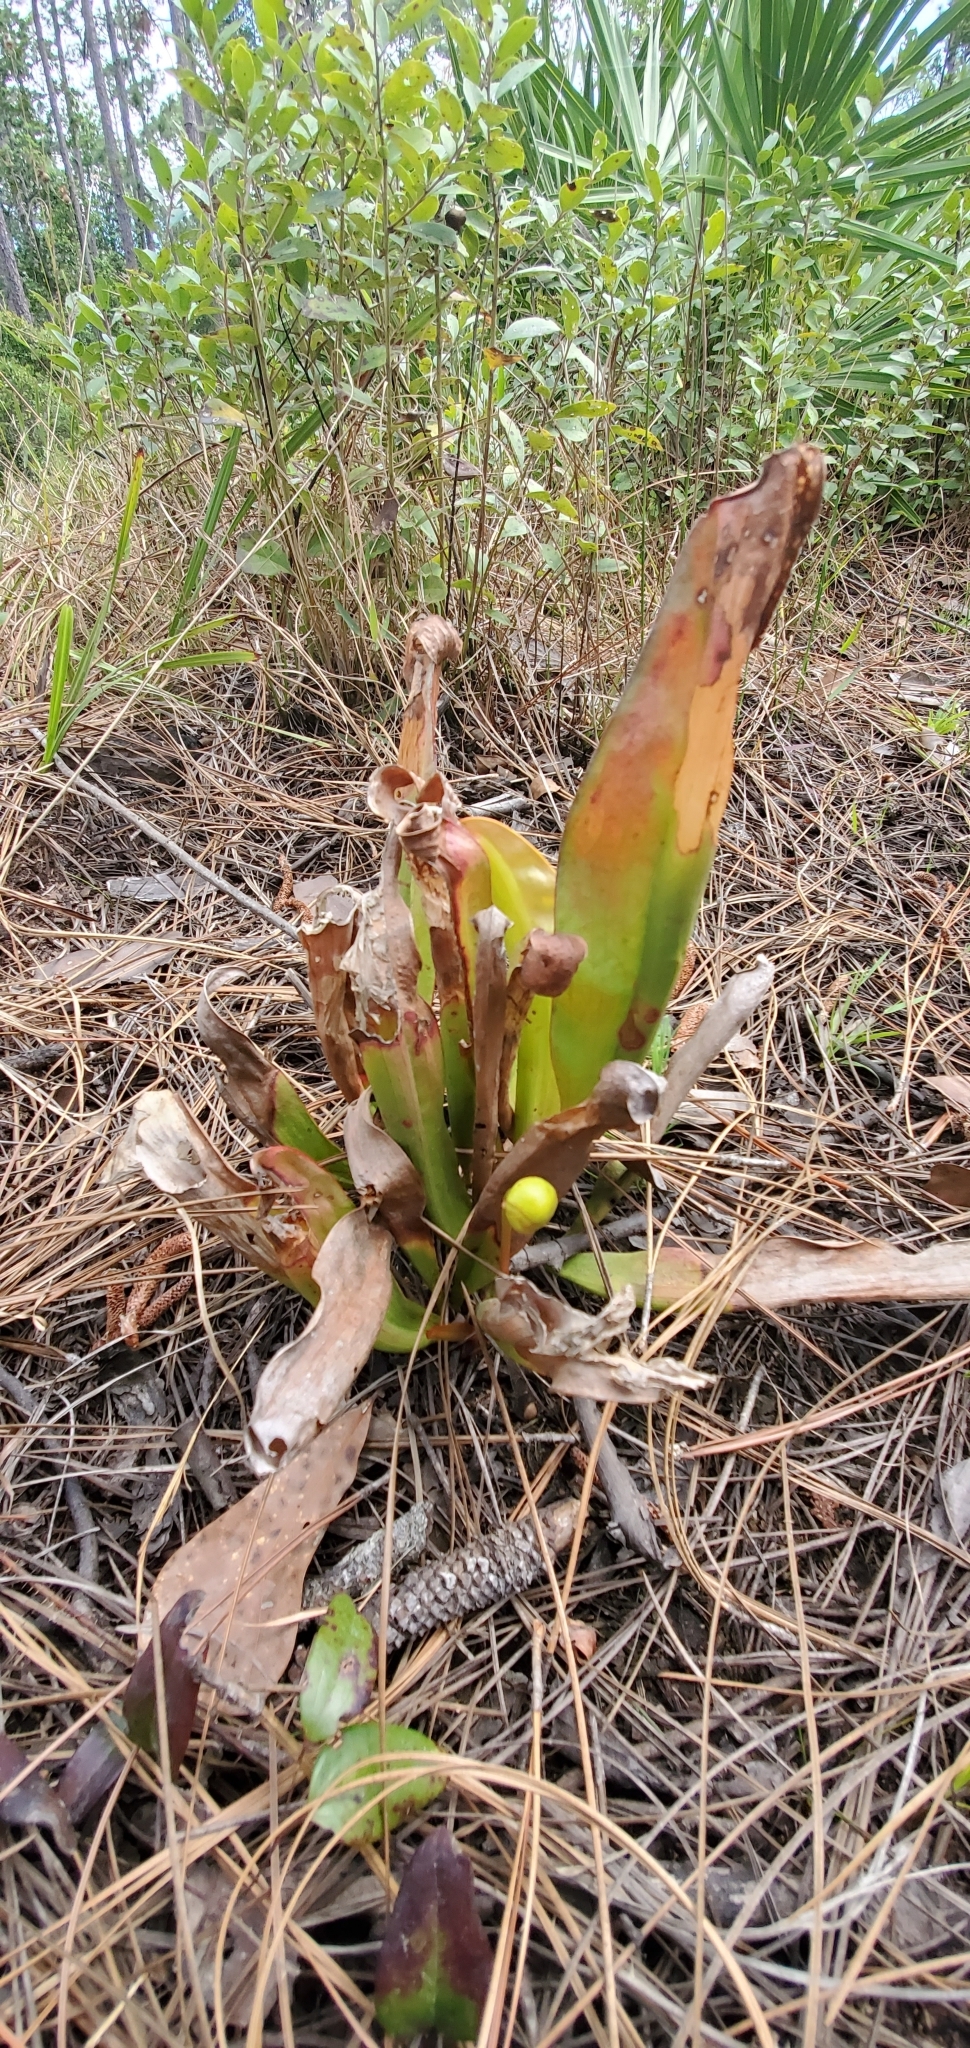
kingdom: Plantae
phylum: Tracheophyta
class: Magnoliopsida
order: Ericales
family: Sarraceniaceae
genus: Sarracenia
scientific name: Sarracenia minor
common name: Rainhat-trumpet
